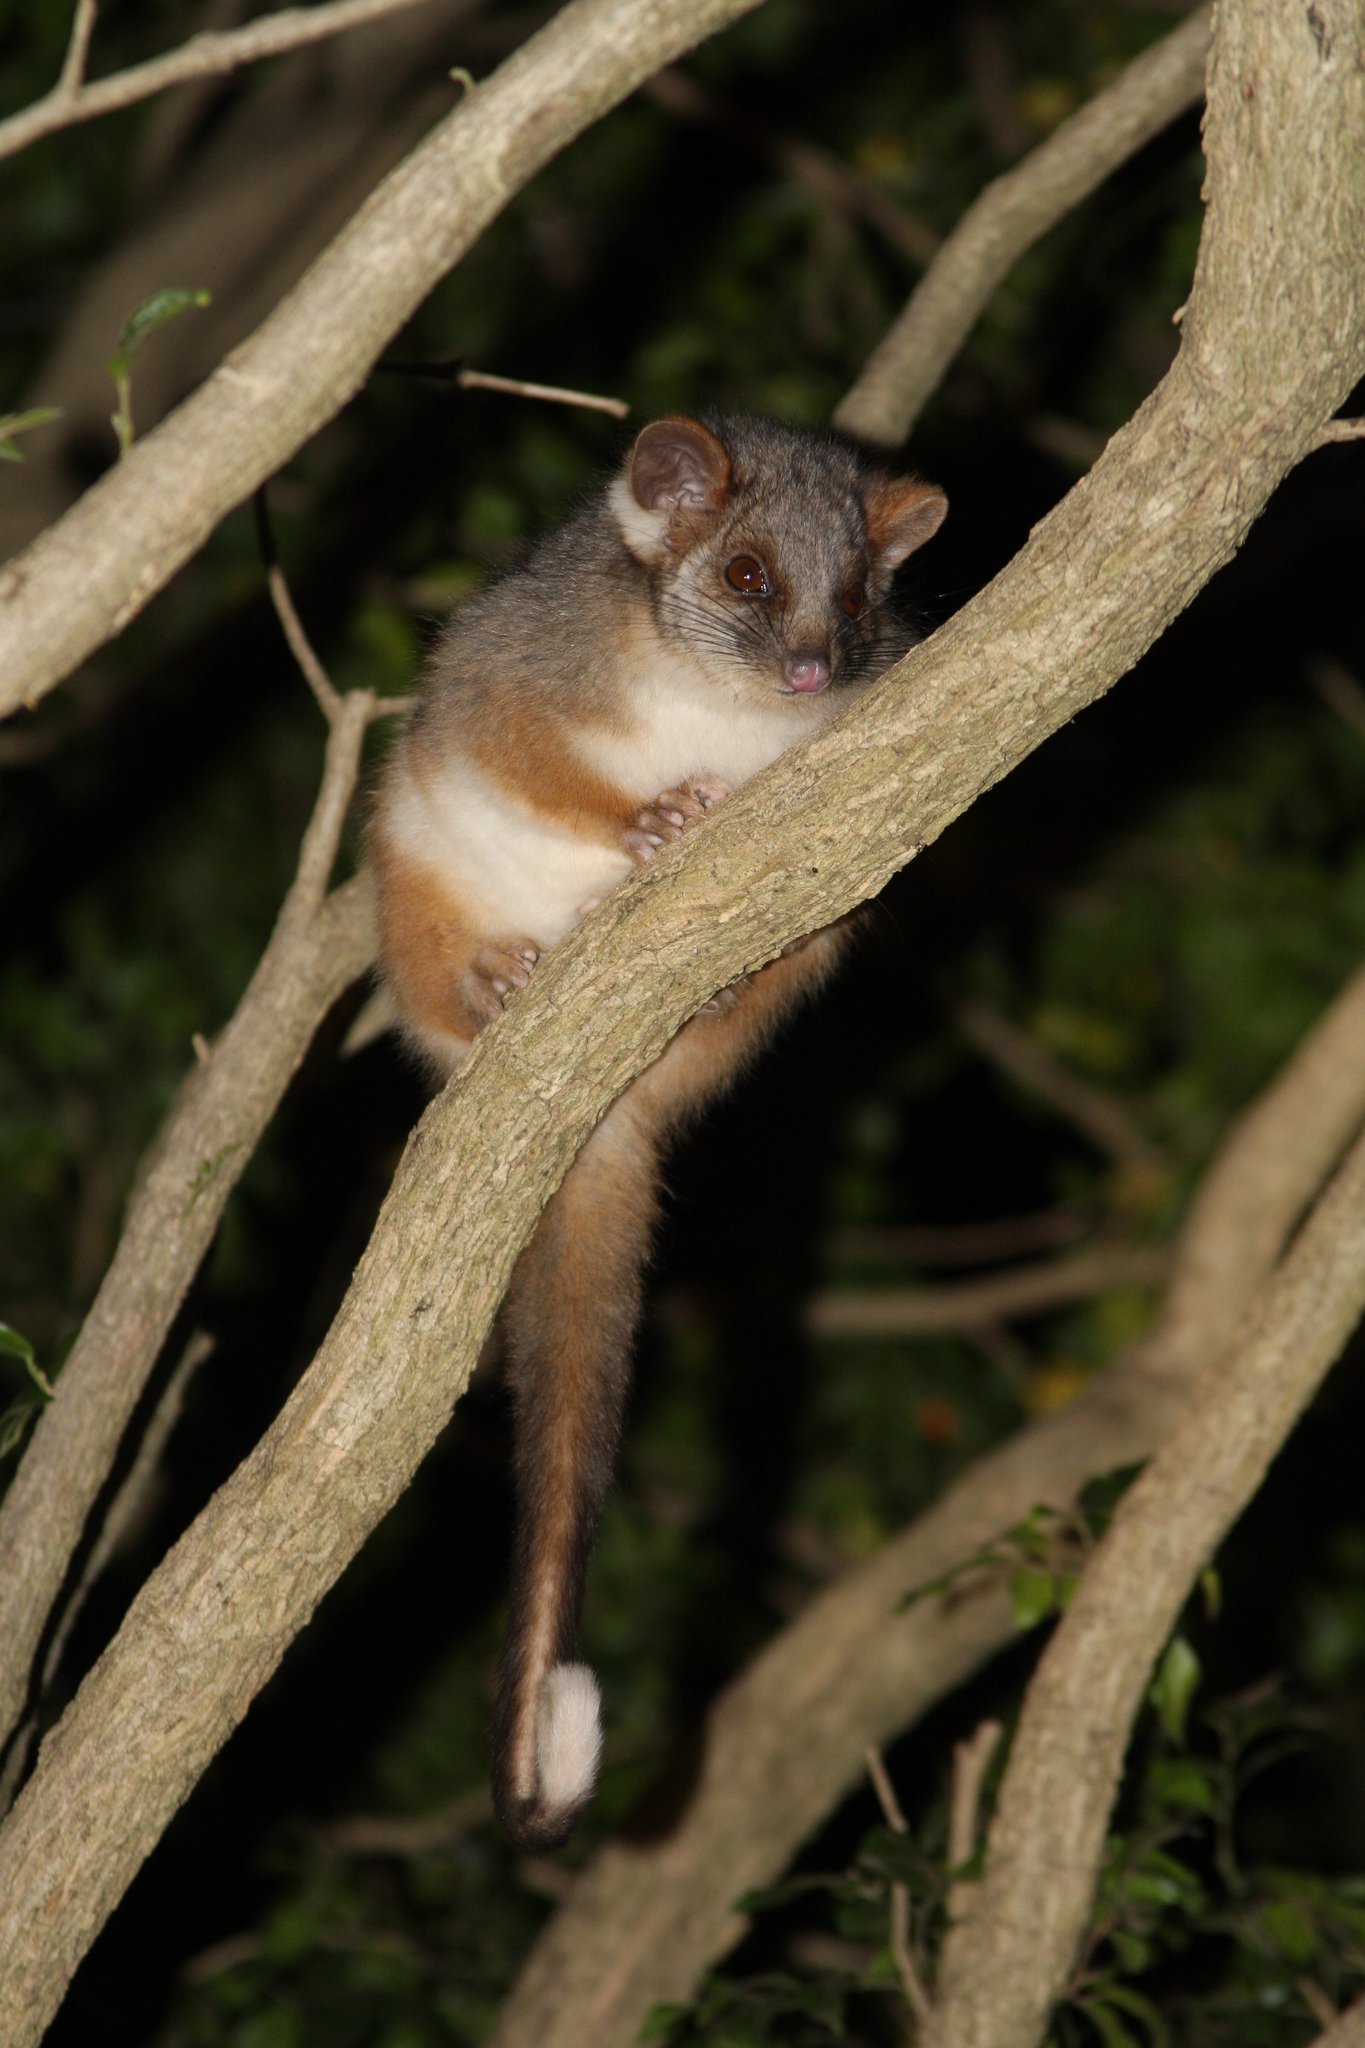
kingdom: Animalia
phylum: Chordata
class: Mammalia
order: Diprotodontia
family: Pseudocheiridae
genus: Pseudocheirus
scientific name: Pseudocheirus peregrinus
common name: Common ringtail possum
